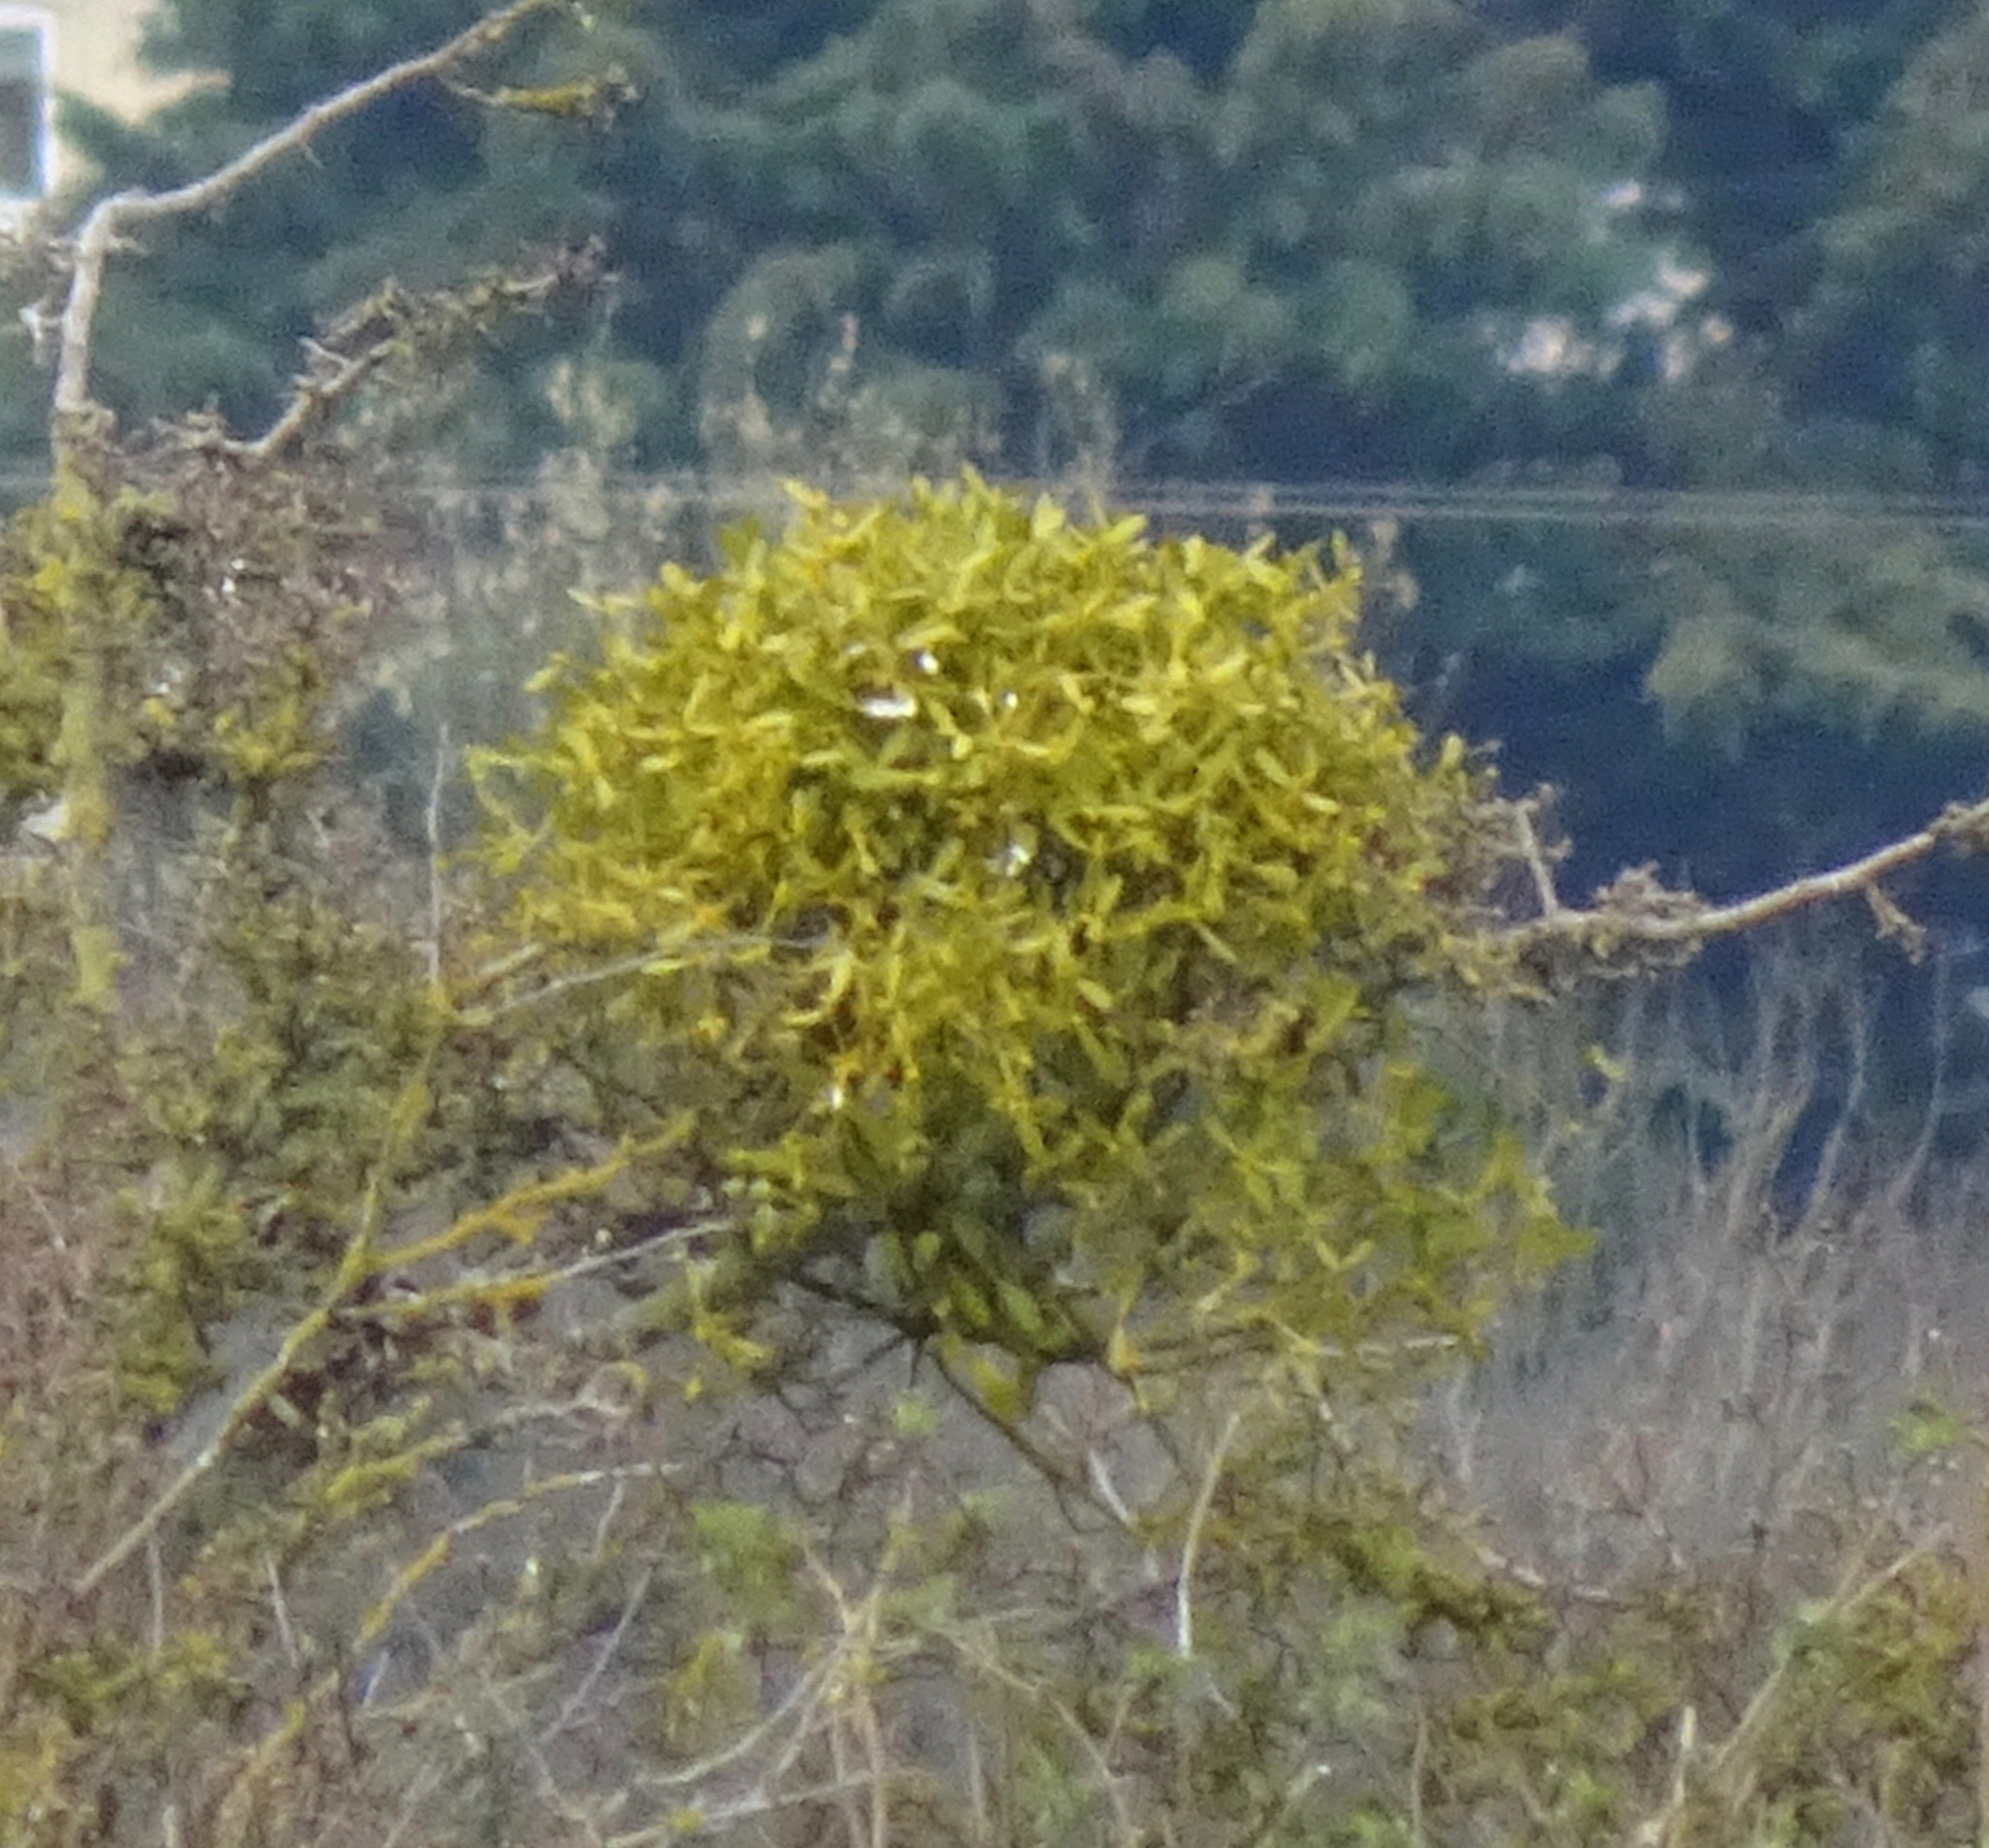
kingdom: Plantae
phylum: Tracheophyta
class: Magnoliopsida
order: Santalales
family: Viscaceae
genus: Viscum
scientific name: Viscum album
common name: Mistletoe
